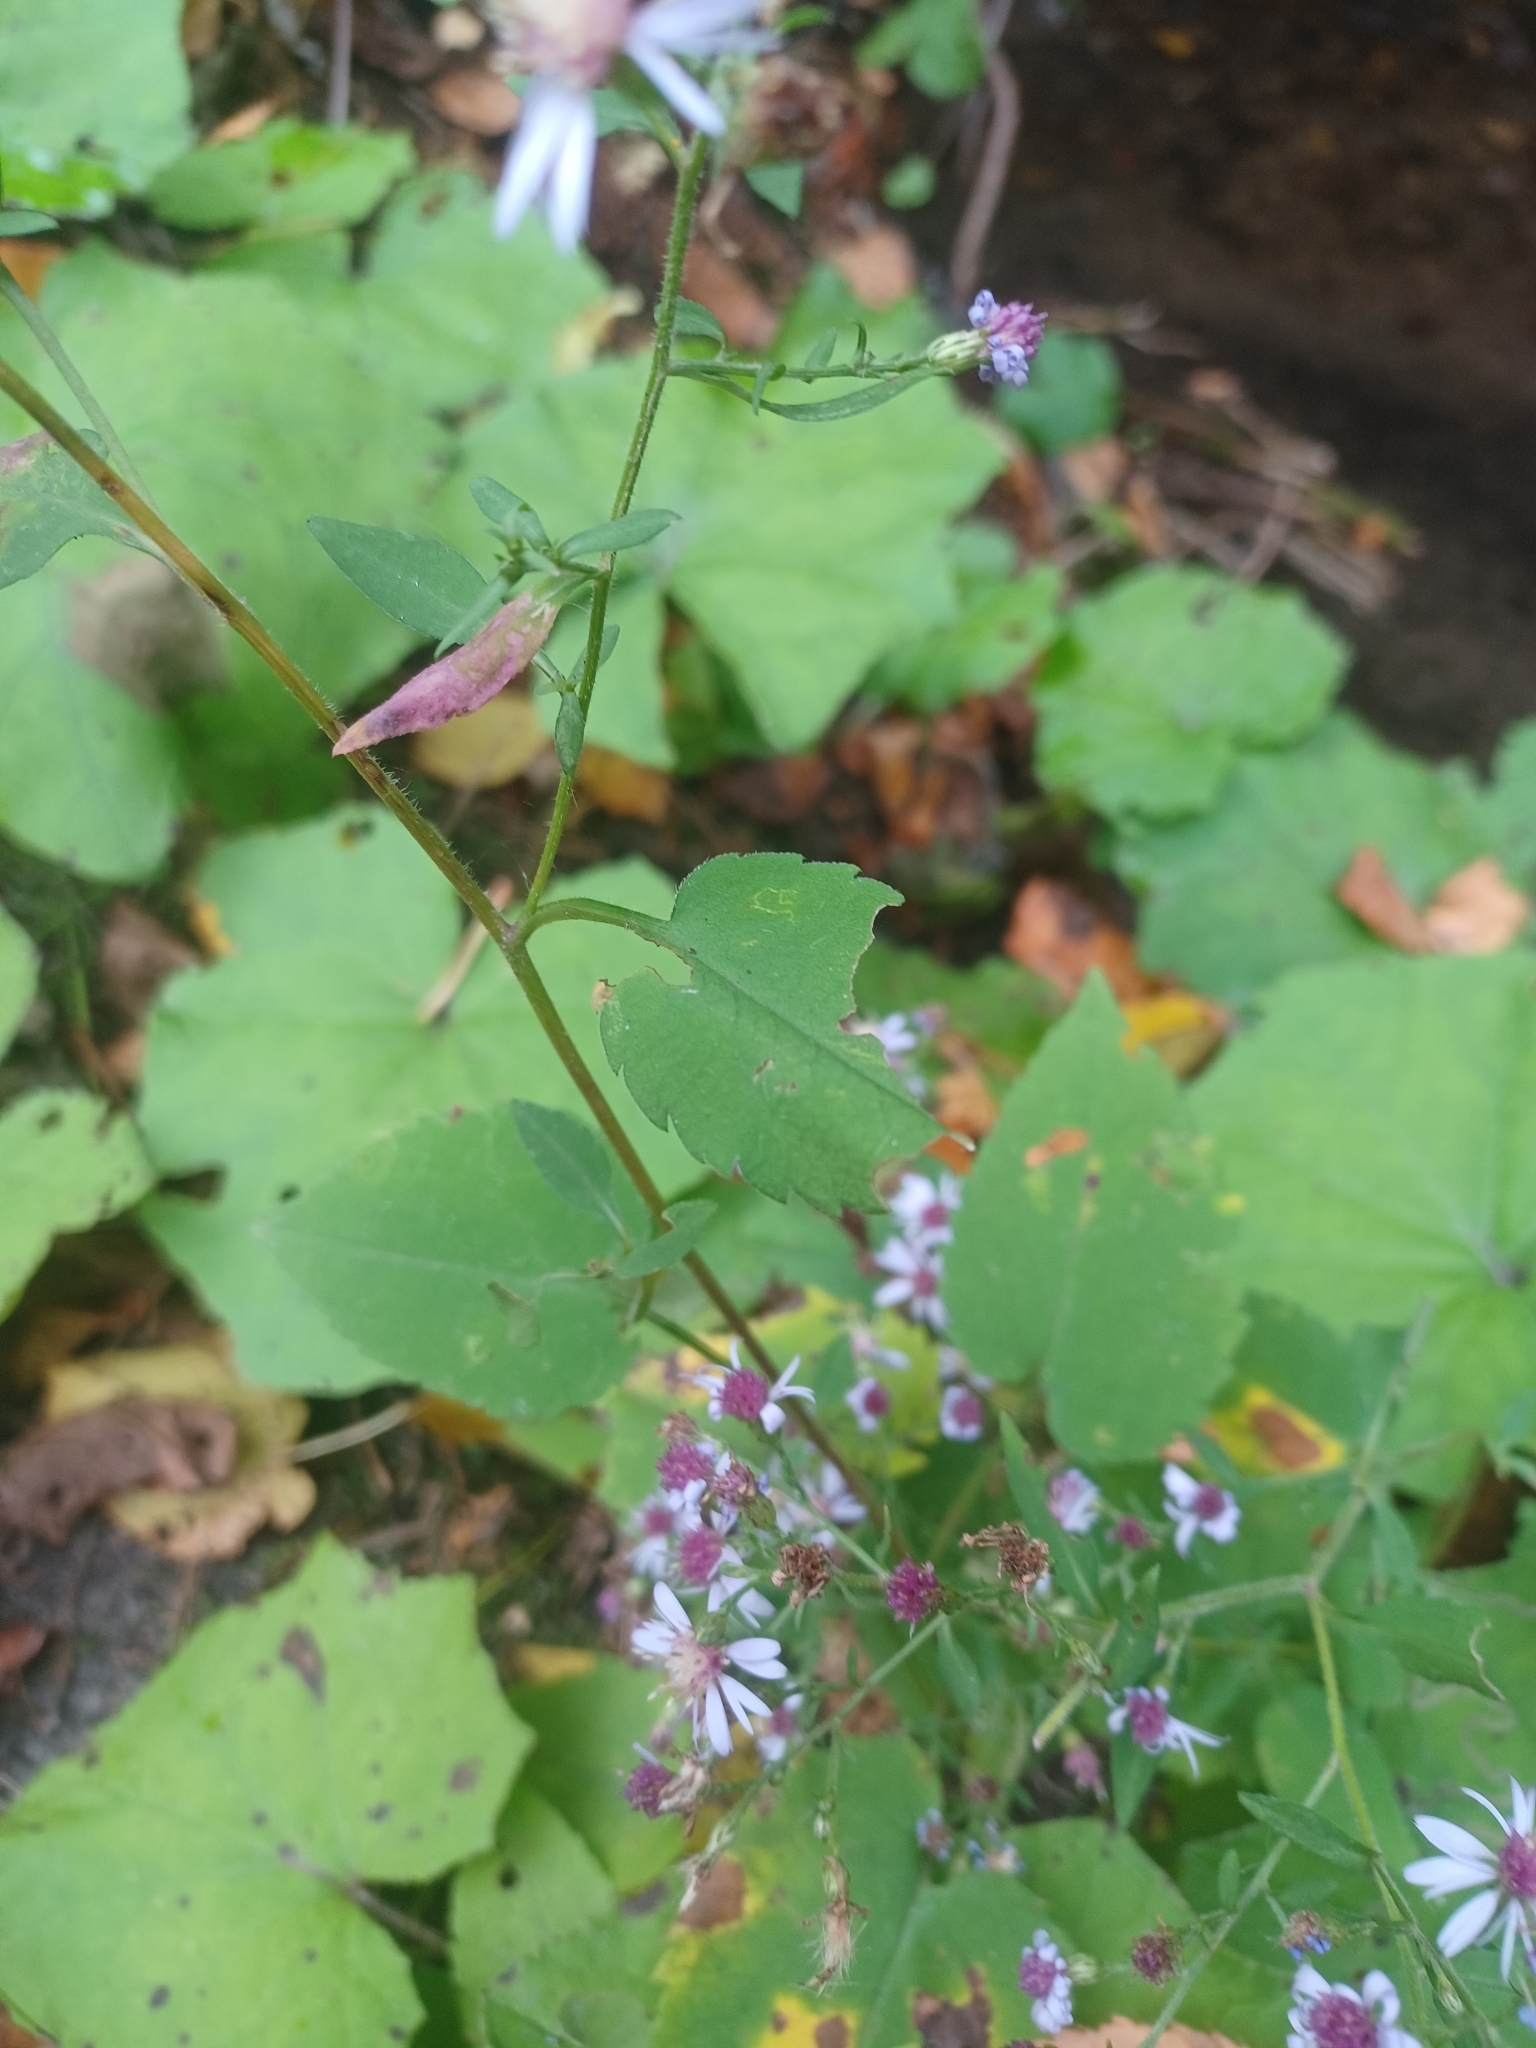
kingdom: Plantae
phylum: Tracheophyta
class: Magnoliopsida
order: Asterales
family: Asteraceae
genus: Symphyotrichum
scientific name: Symphyotrichum cordifolium
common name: Beeweed
